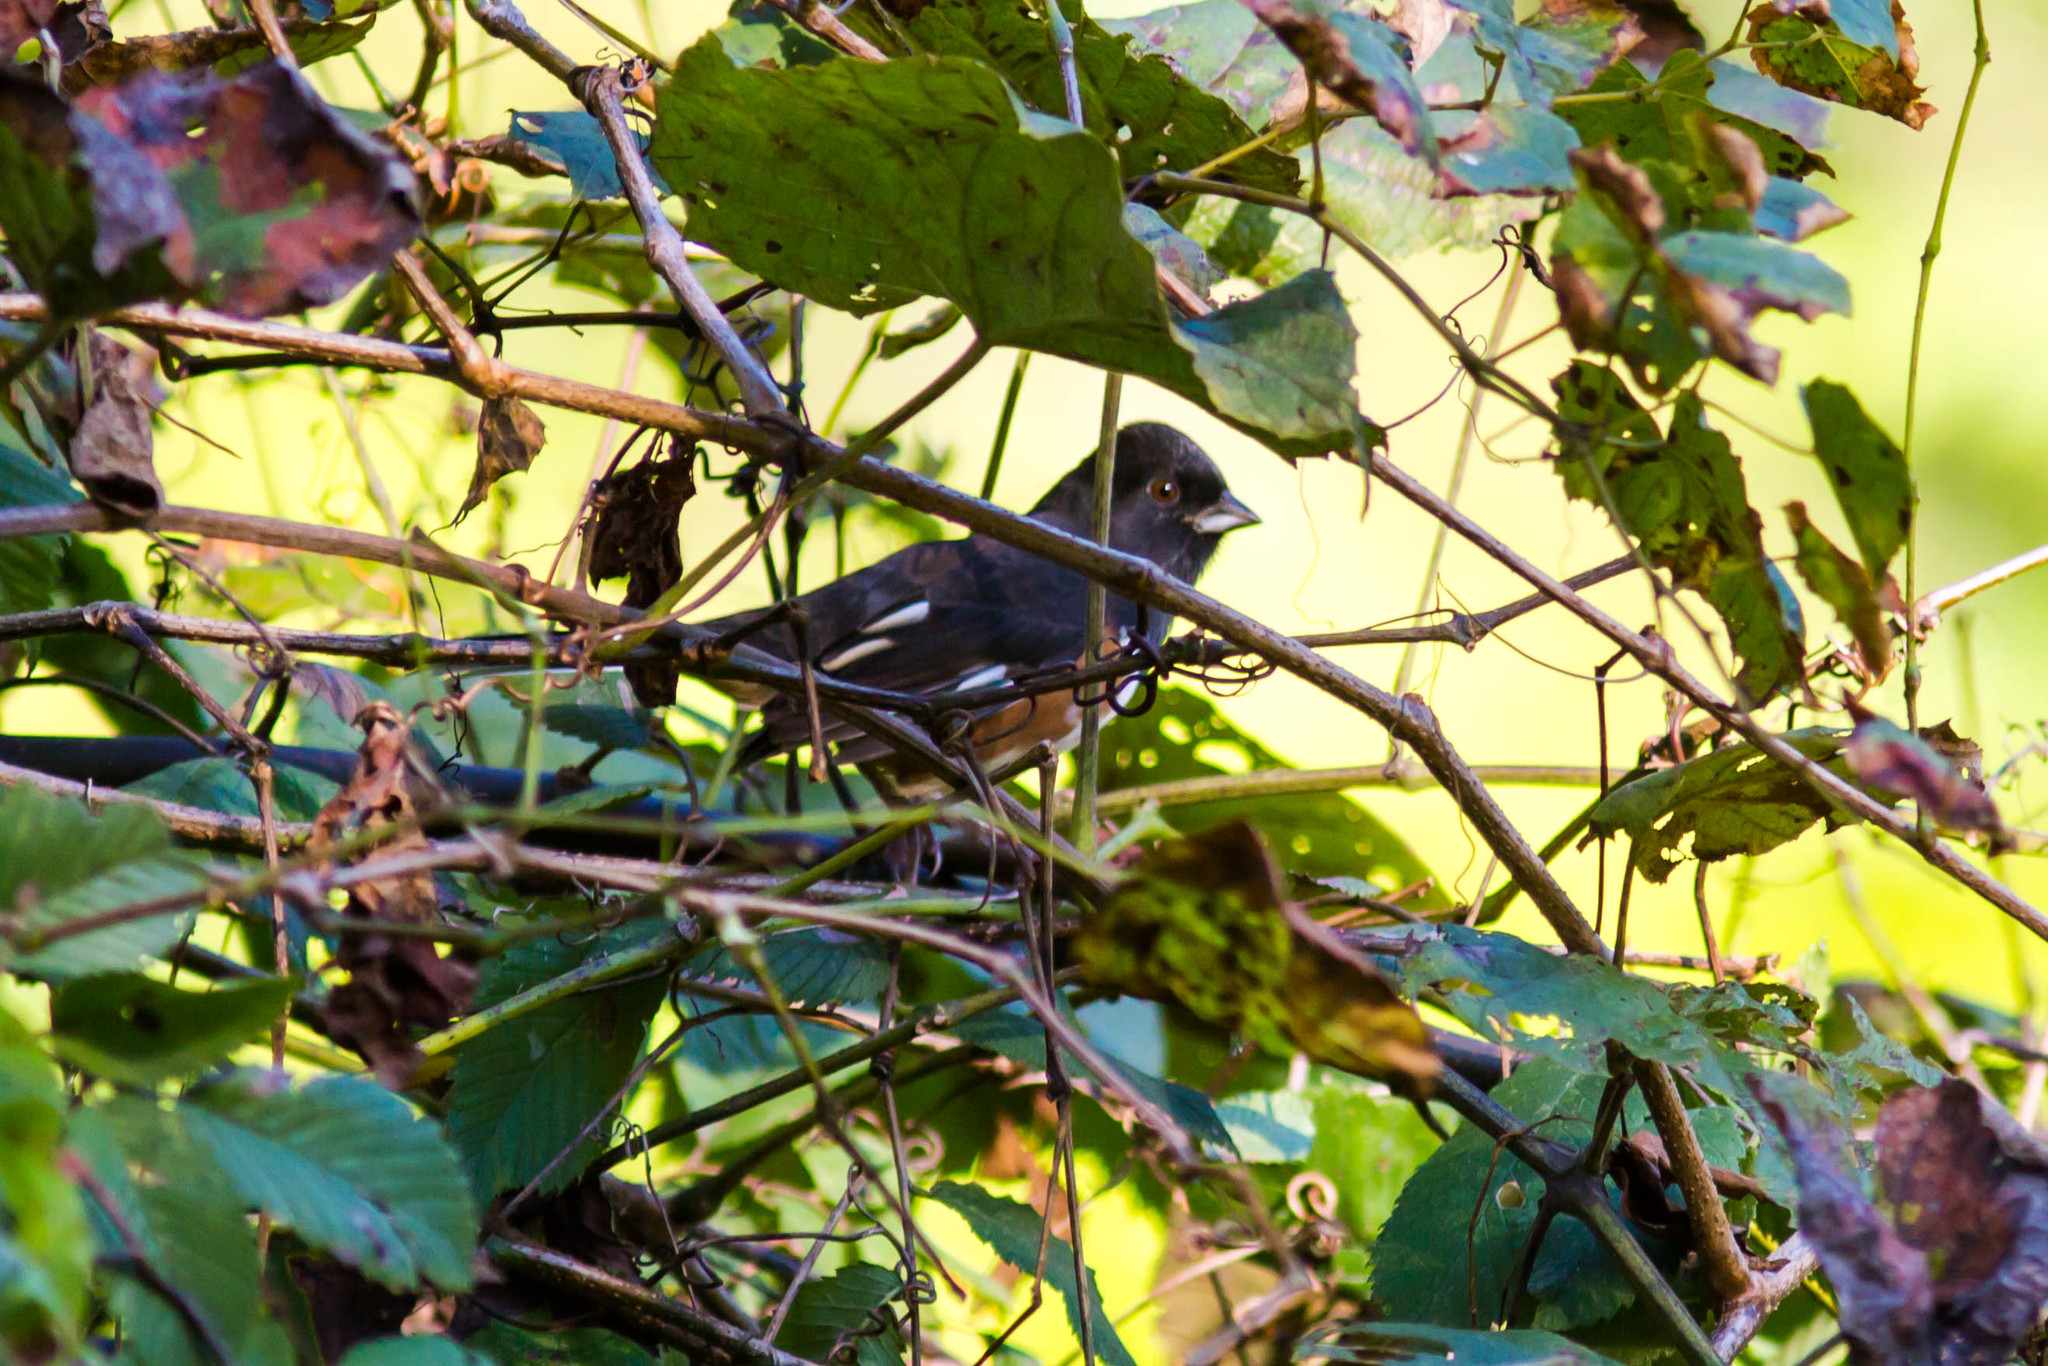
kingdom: Animalia
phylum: Chordata
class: Aves
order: Passeriformes
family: Passerellidae
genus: Pipilo
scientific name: Pipilo erythrophthalmus
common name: Eastern towhee
